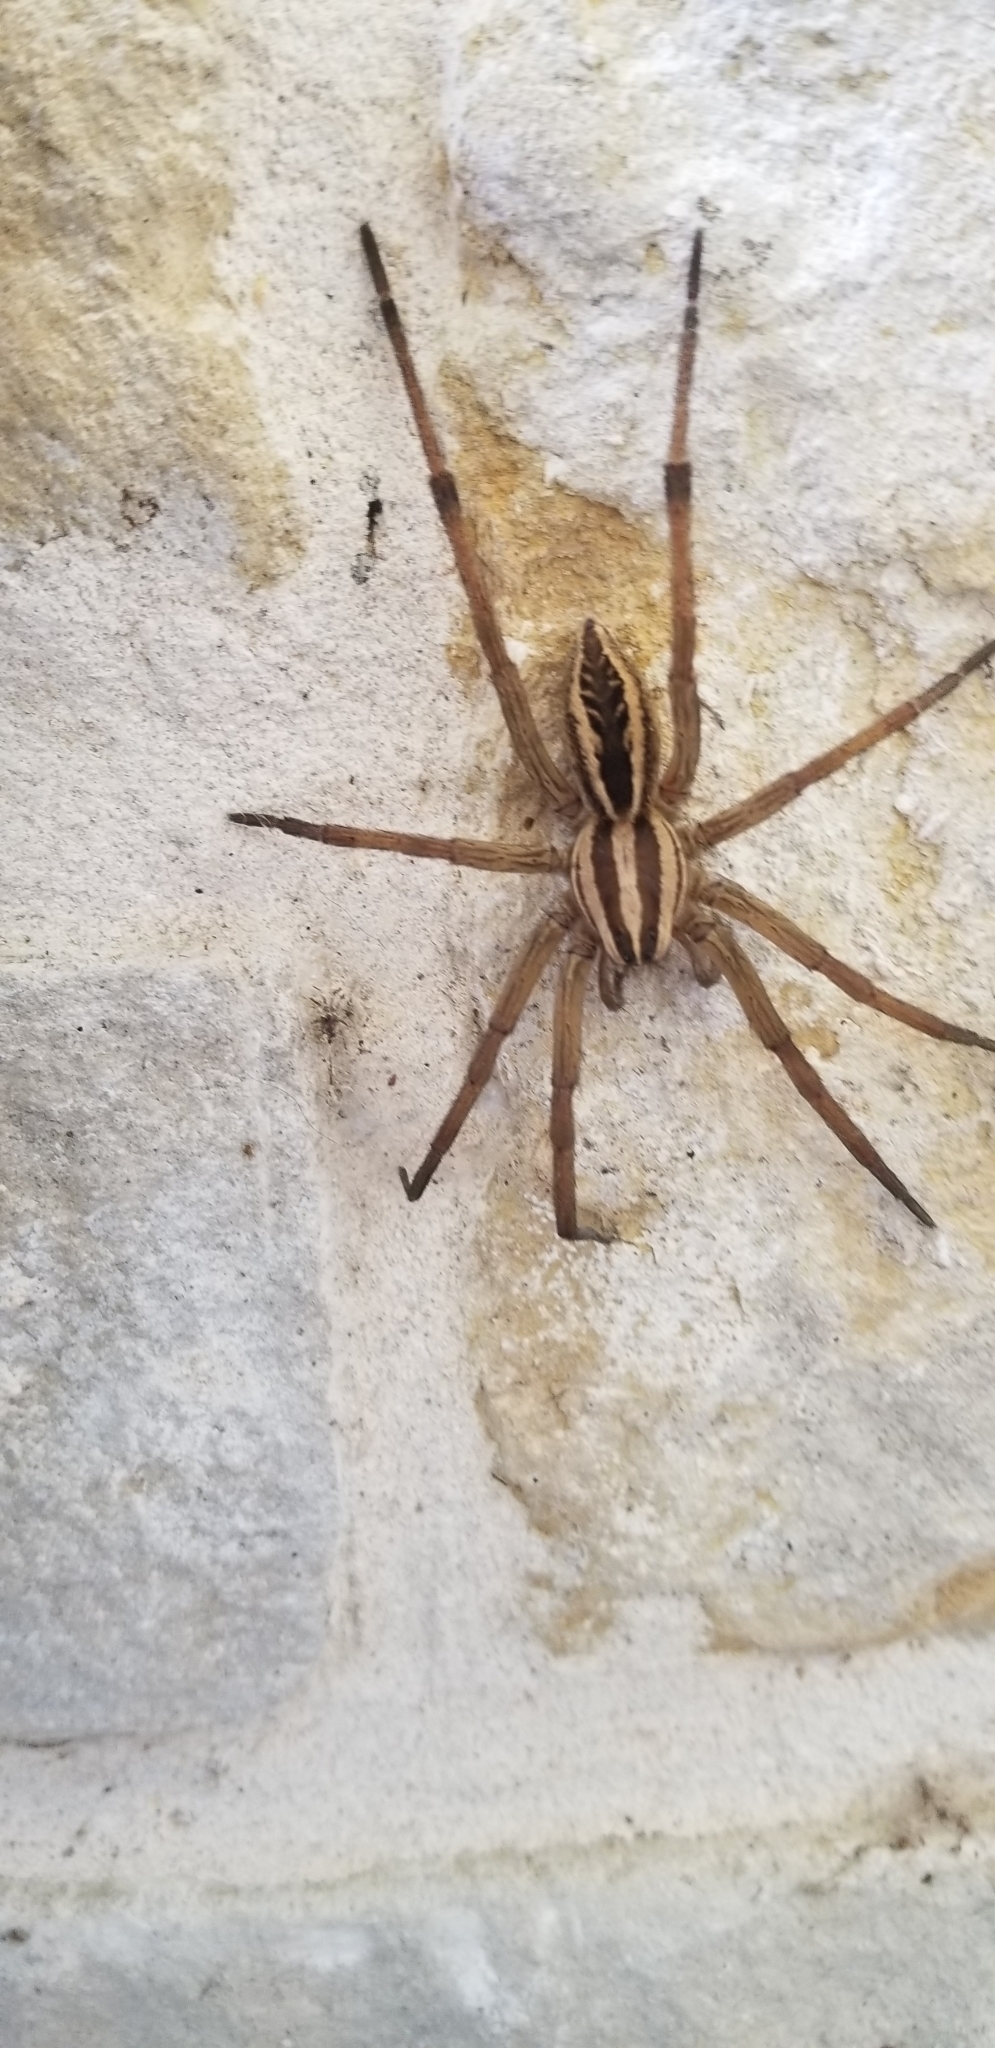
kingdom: Animalia
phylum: Arthropoda
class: Arachnida
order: Araneae
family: Lycosidae
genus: Rabidosa
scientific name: Rabidosa rabida
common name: Rabid wolf spider
